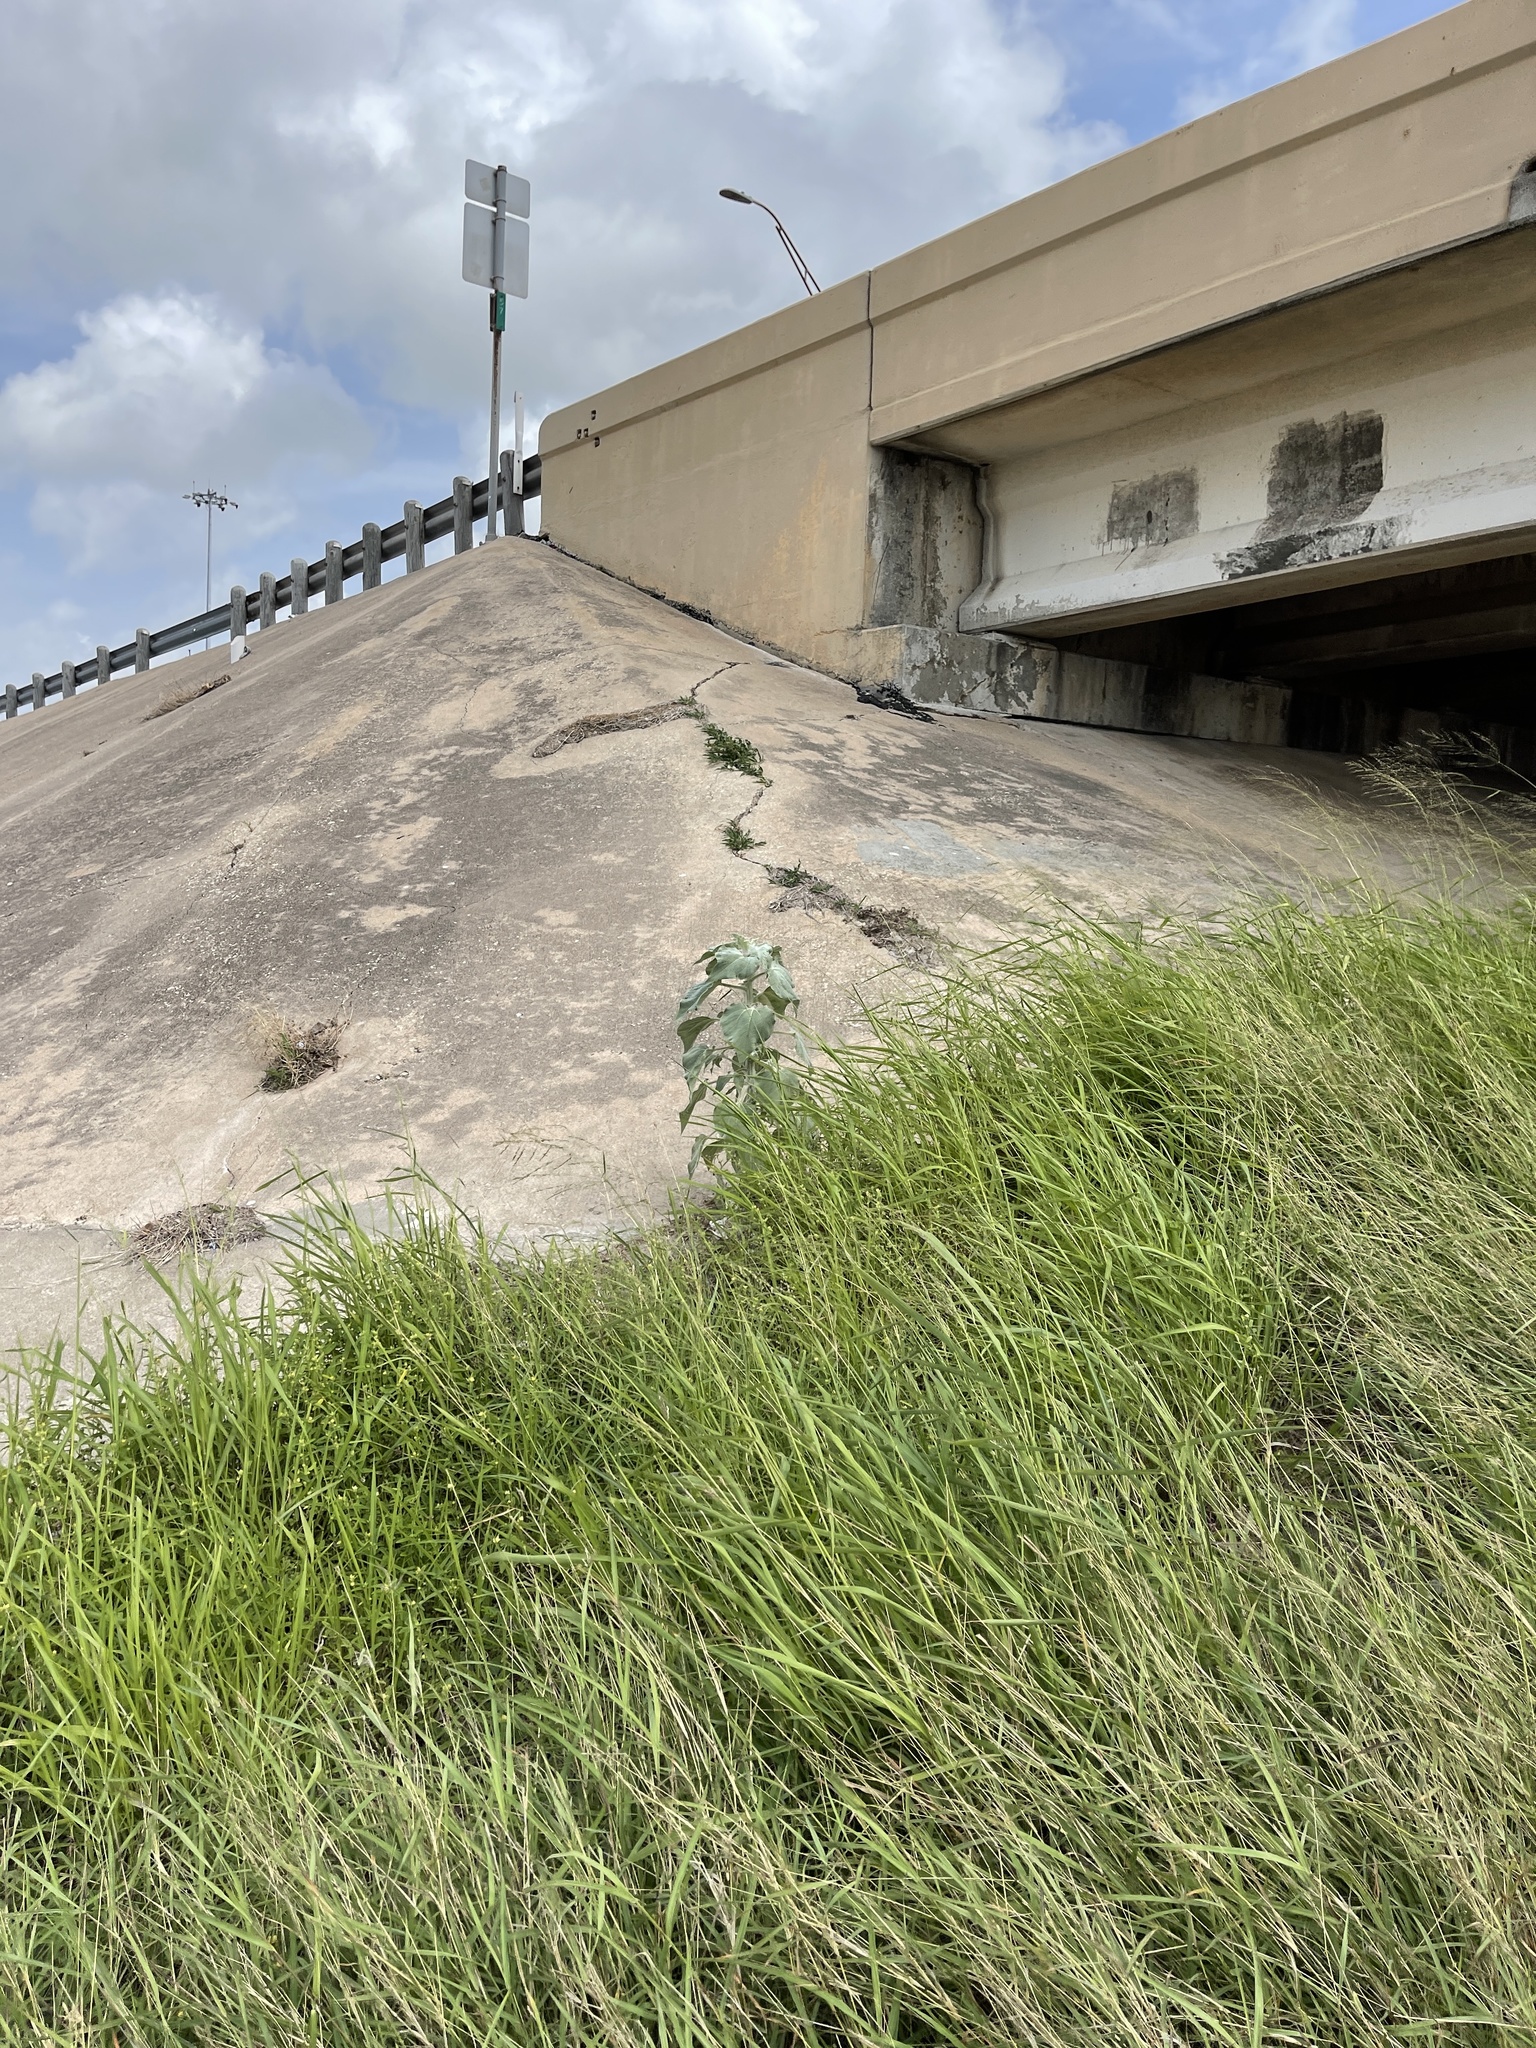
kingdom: Plantae
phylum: Tracheophyta
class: Liliopsida
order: Poales
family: Poaceae
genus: Megathyrsus
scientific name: Megathyrsus maximus
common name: Guineagrass
